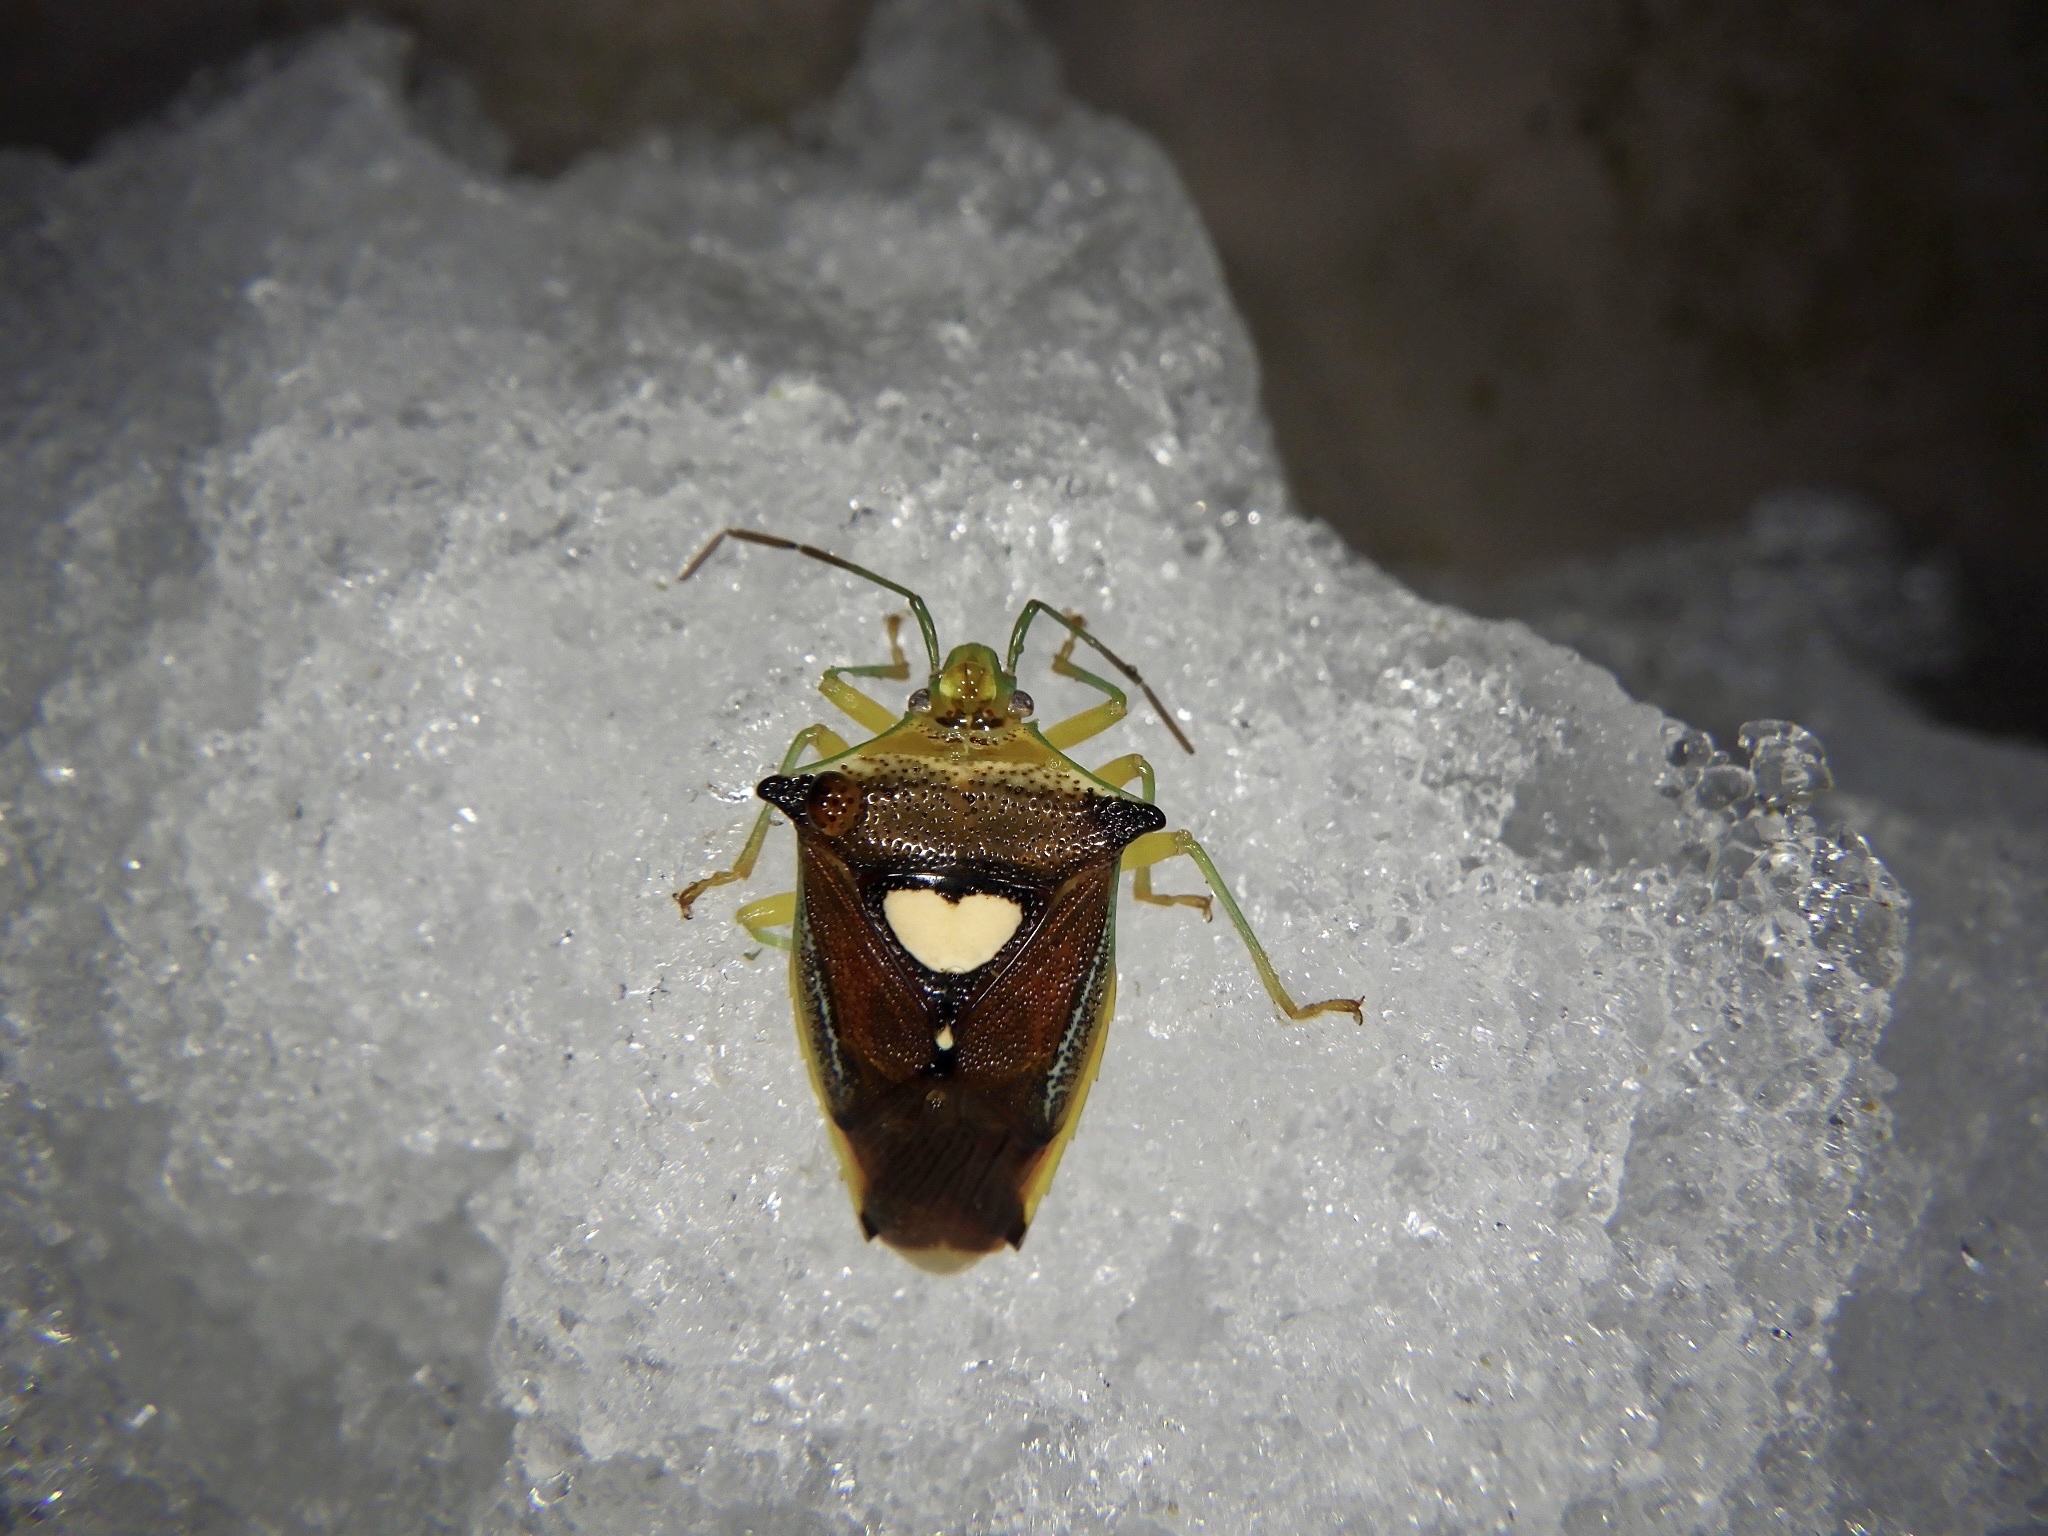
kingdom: Animalia
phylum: Arthropoda
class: Insecta
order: Hemiptera
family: Acanthosomatidae
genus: Sastragala
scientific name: Sastragala esakii
